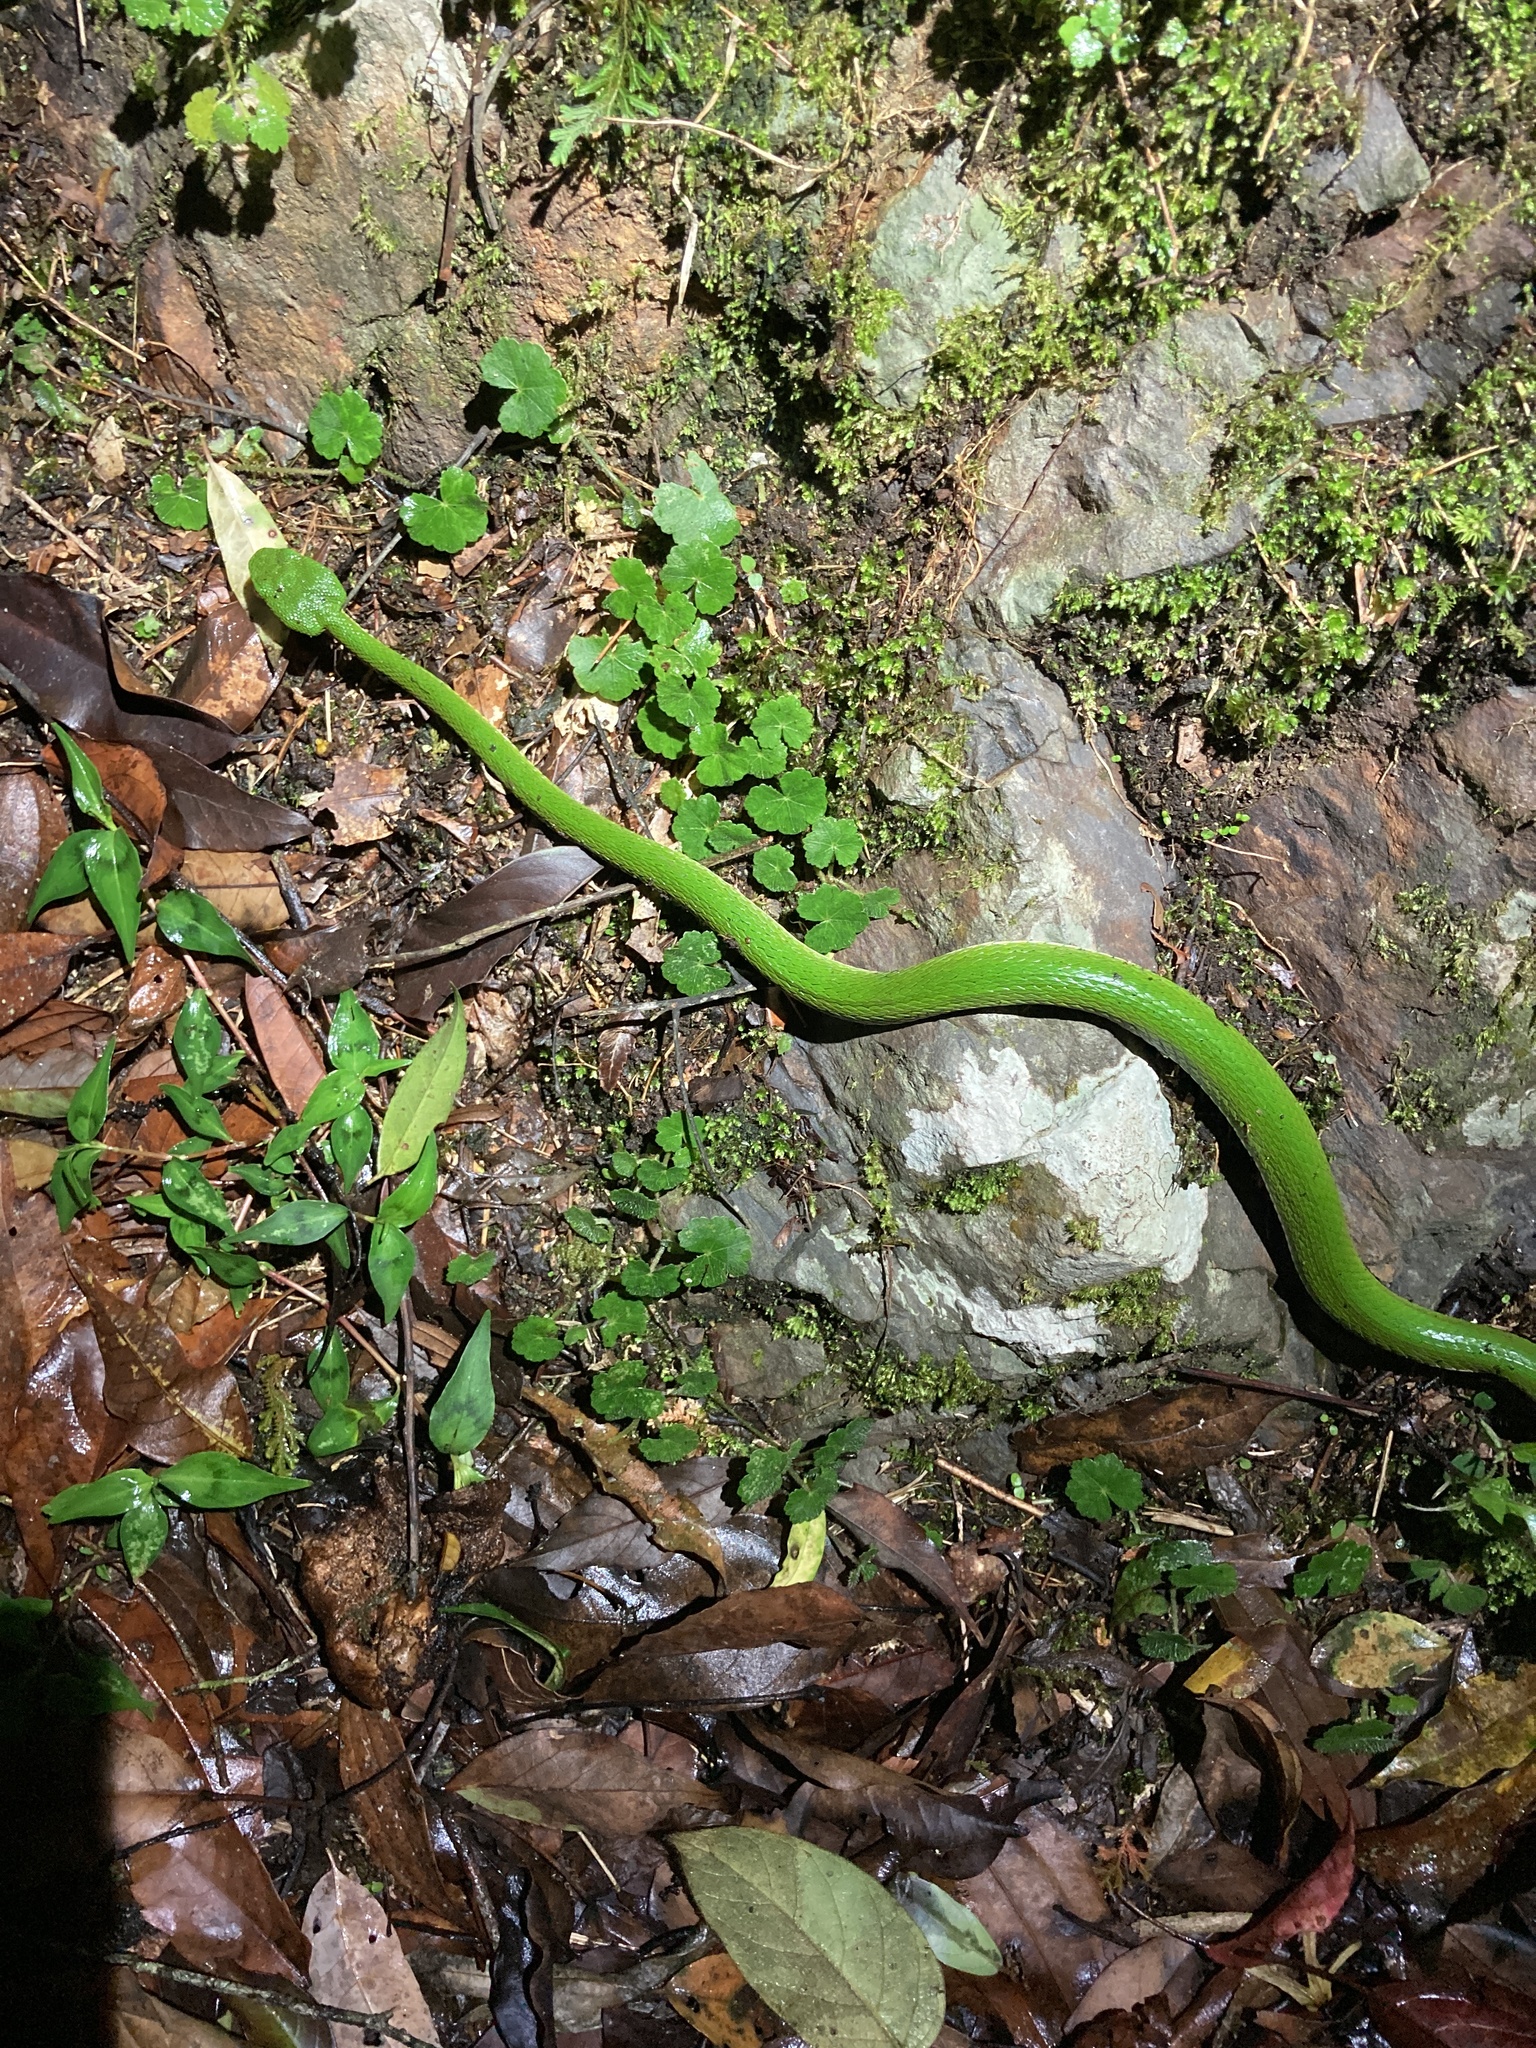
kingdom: Animalia
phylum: Chordata
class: Squamata
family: Viperidae
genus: Trimeresurus
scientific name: Trimeresurus stejnegeri
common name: Chen’s bamboo pit viper
